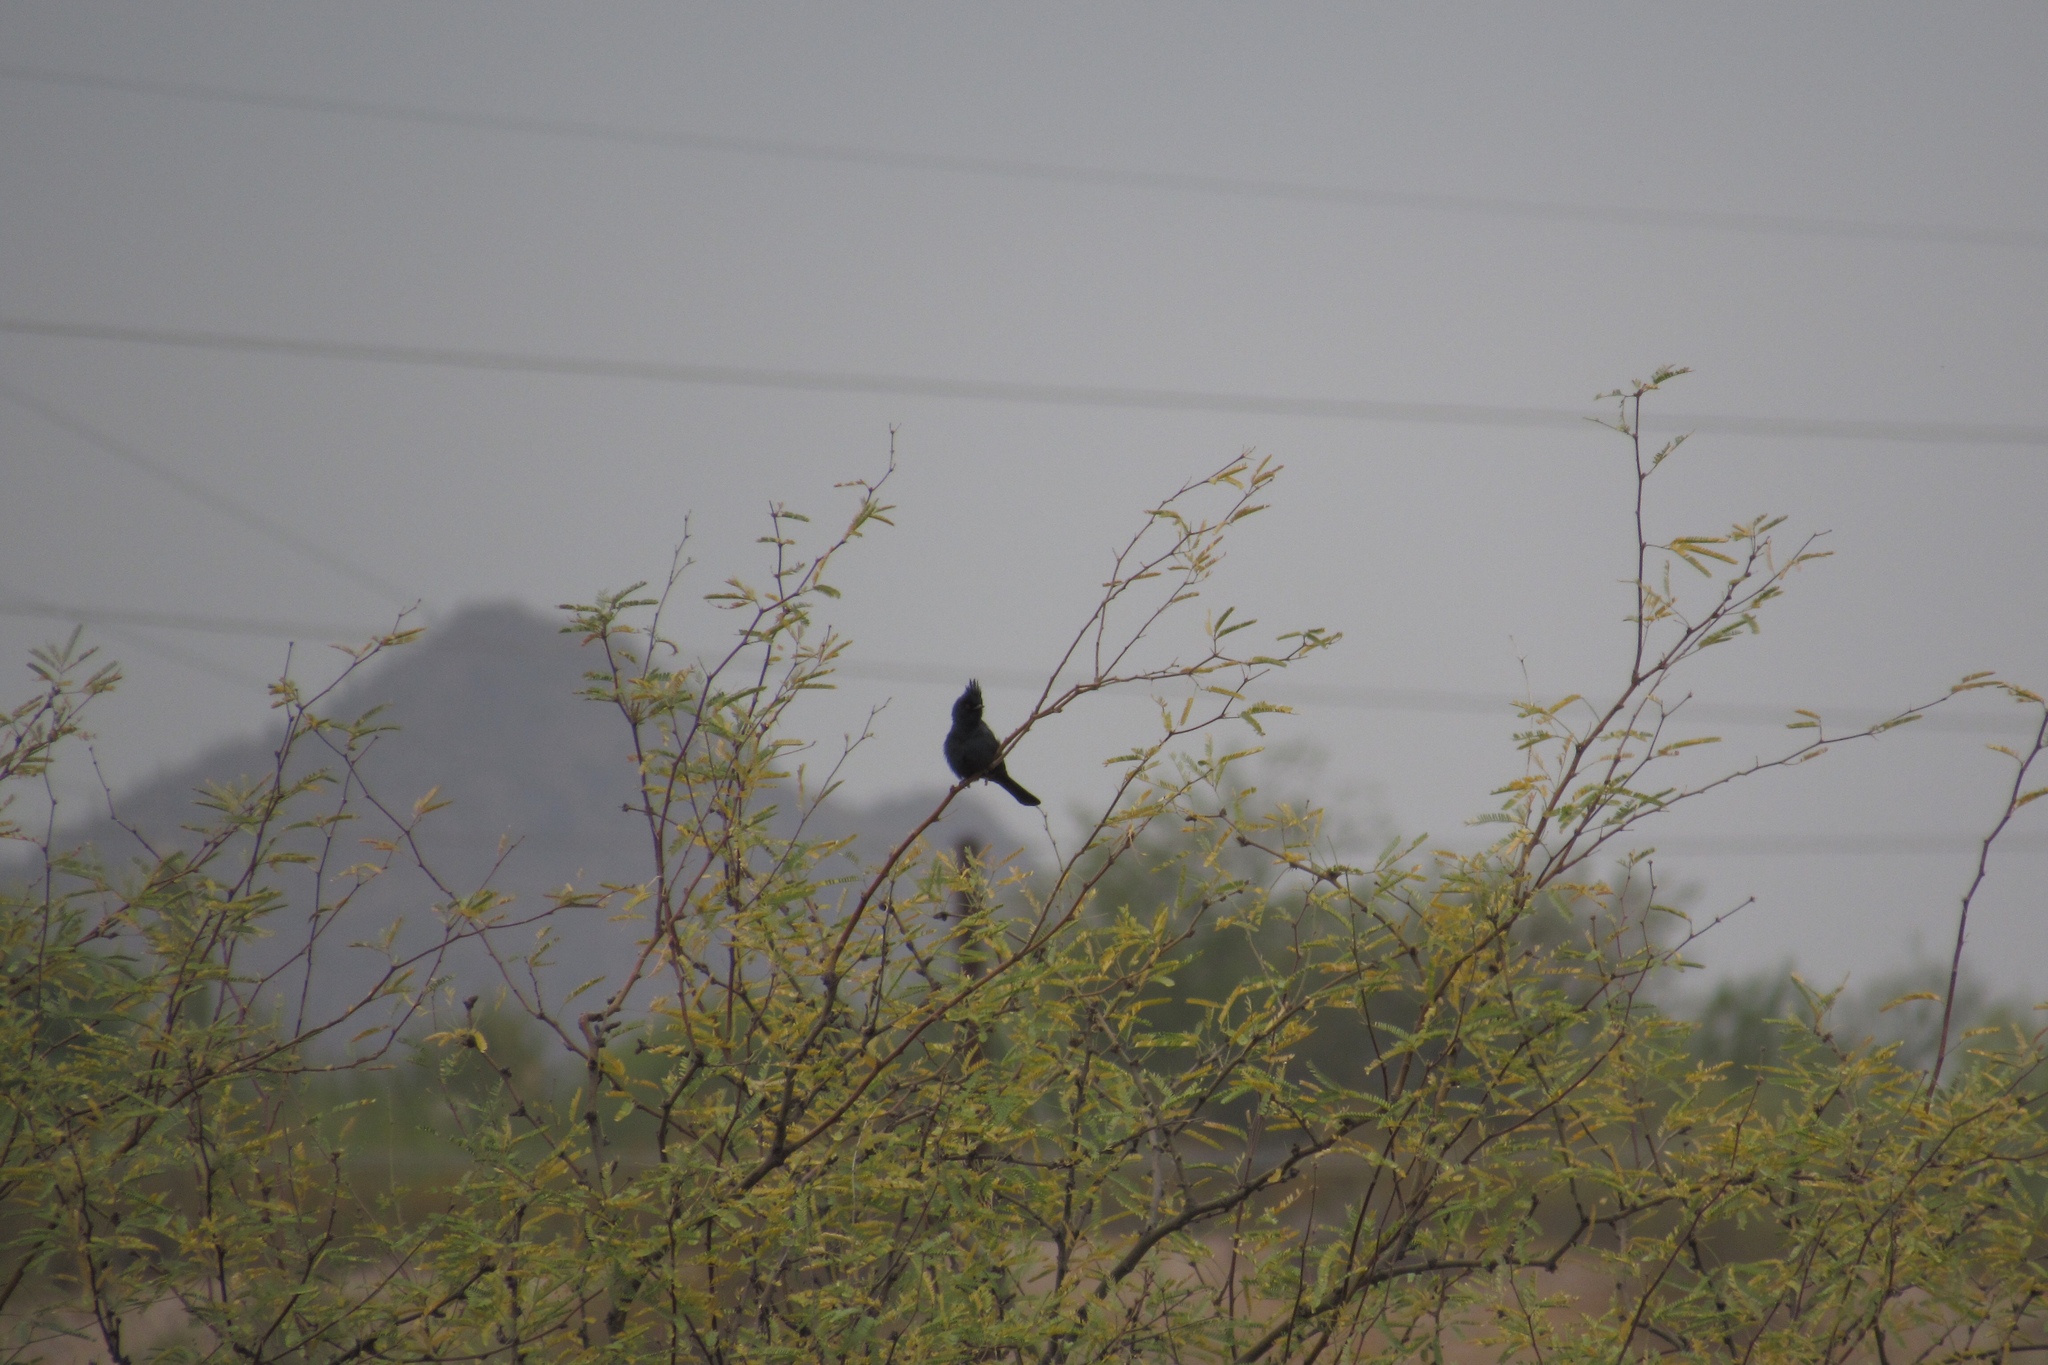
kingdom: Animalia
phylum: Chordata
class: Aves
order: Passeriformes
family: Ptilogonatidae
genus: Phainopepla
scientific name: Phainopepla nitens
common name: Phainopepla
